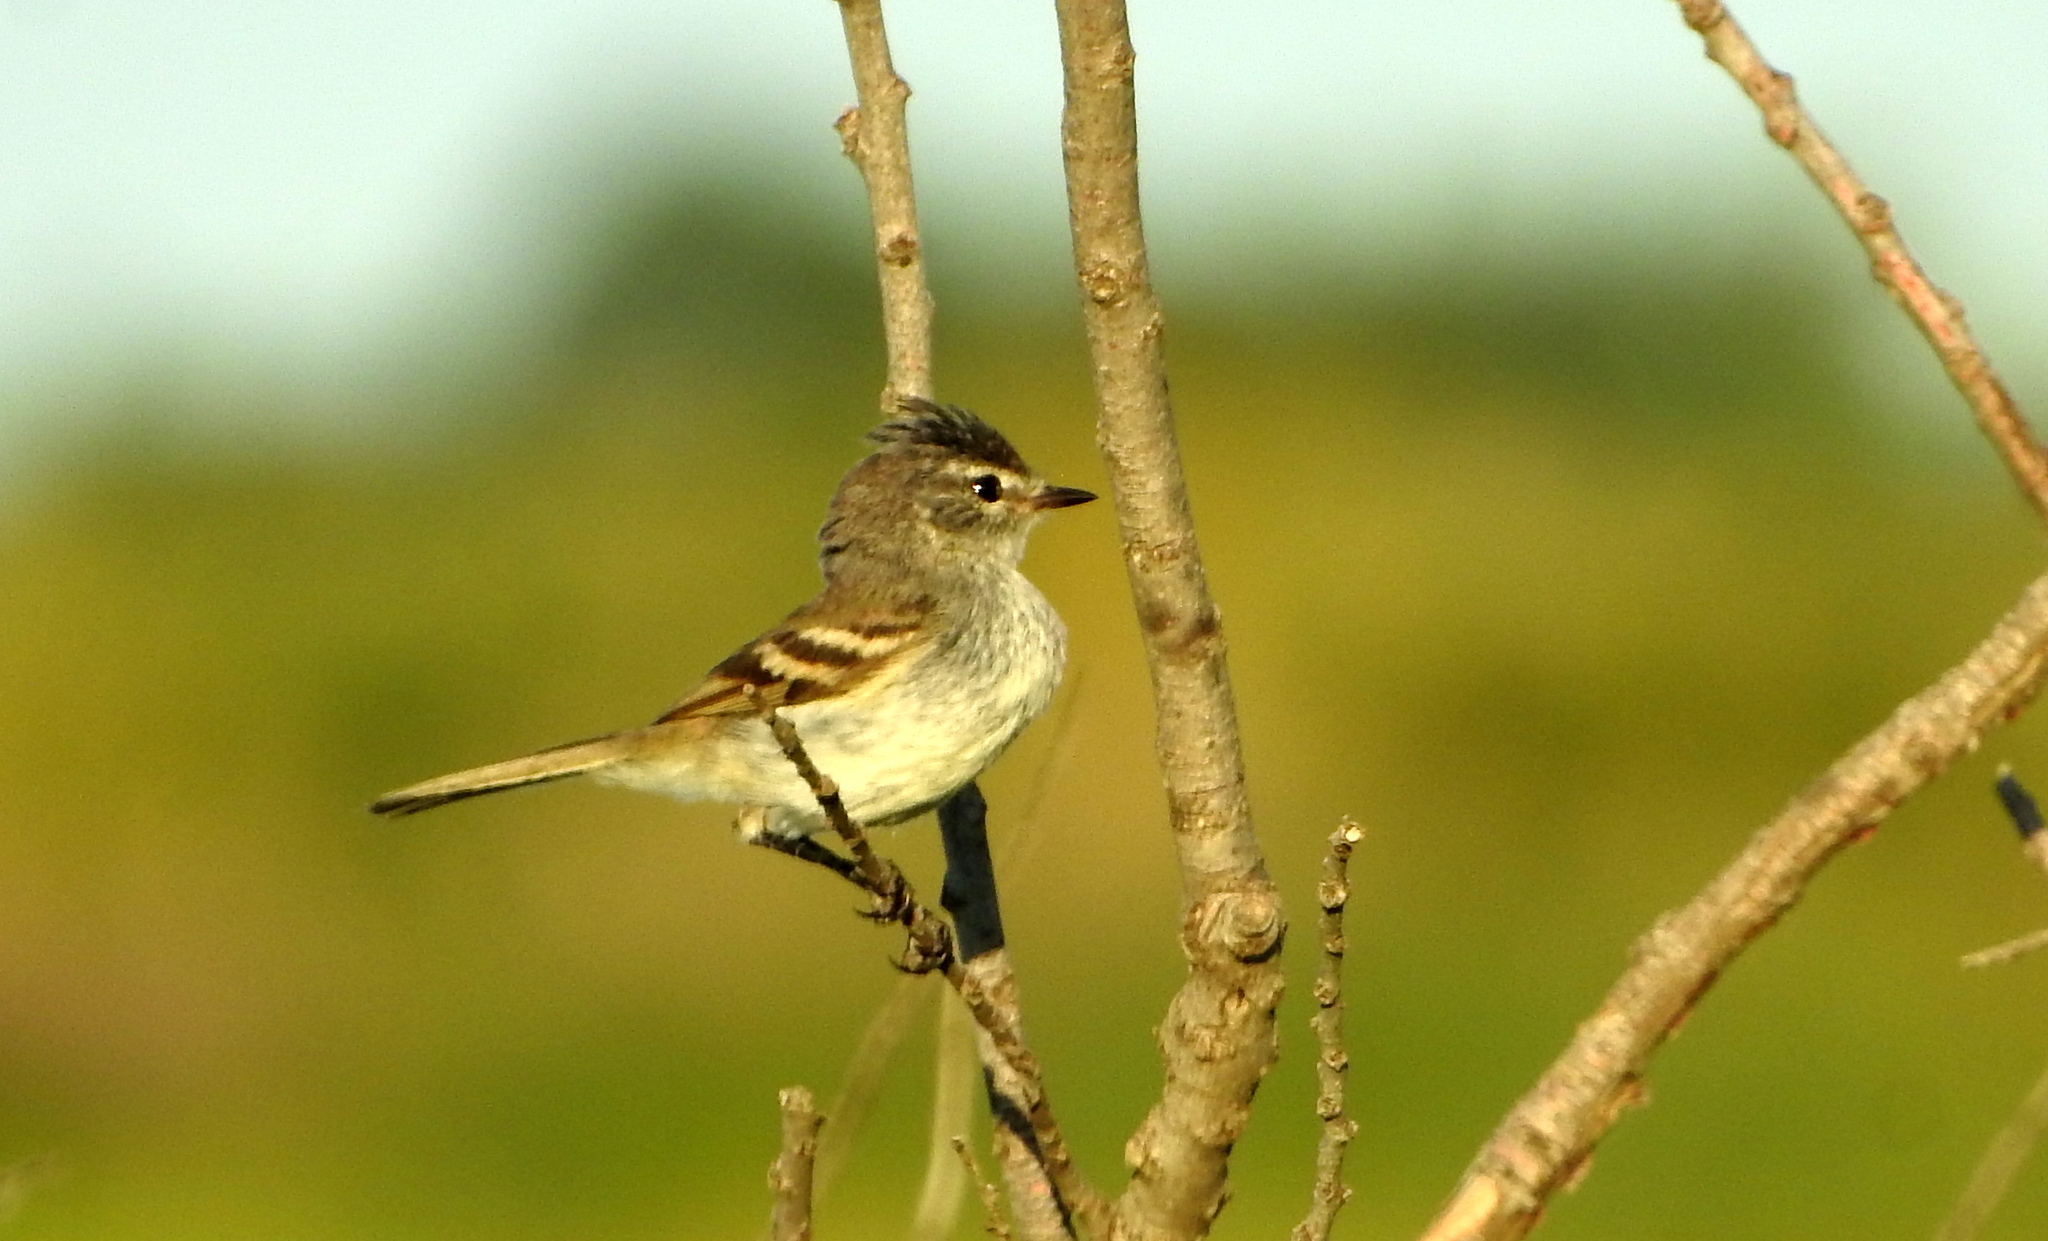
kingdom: Animalia
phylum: Chordata
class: Aves
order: Passeriformes
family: Tyrannidae
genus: Camptostoma
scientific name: Camptostoma obsoletum
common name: Southern beardless-tyrannulet
